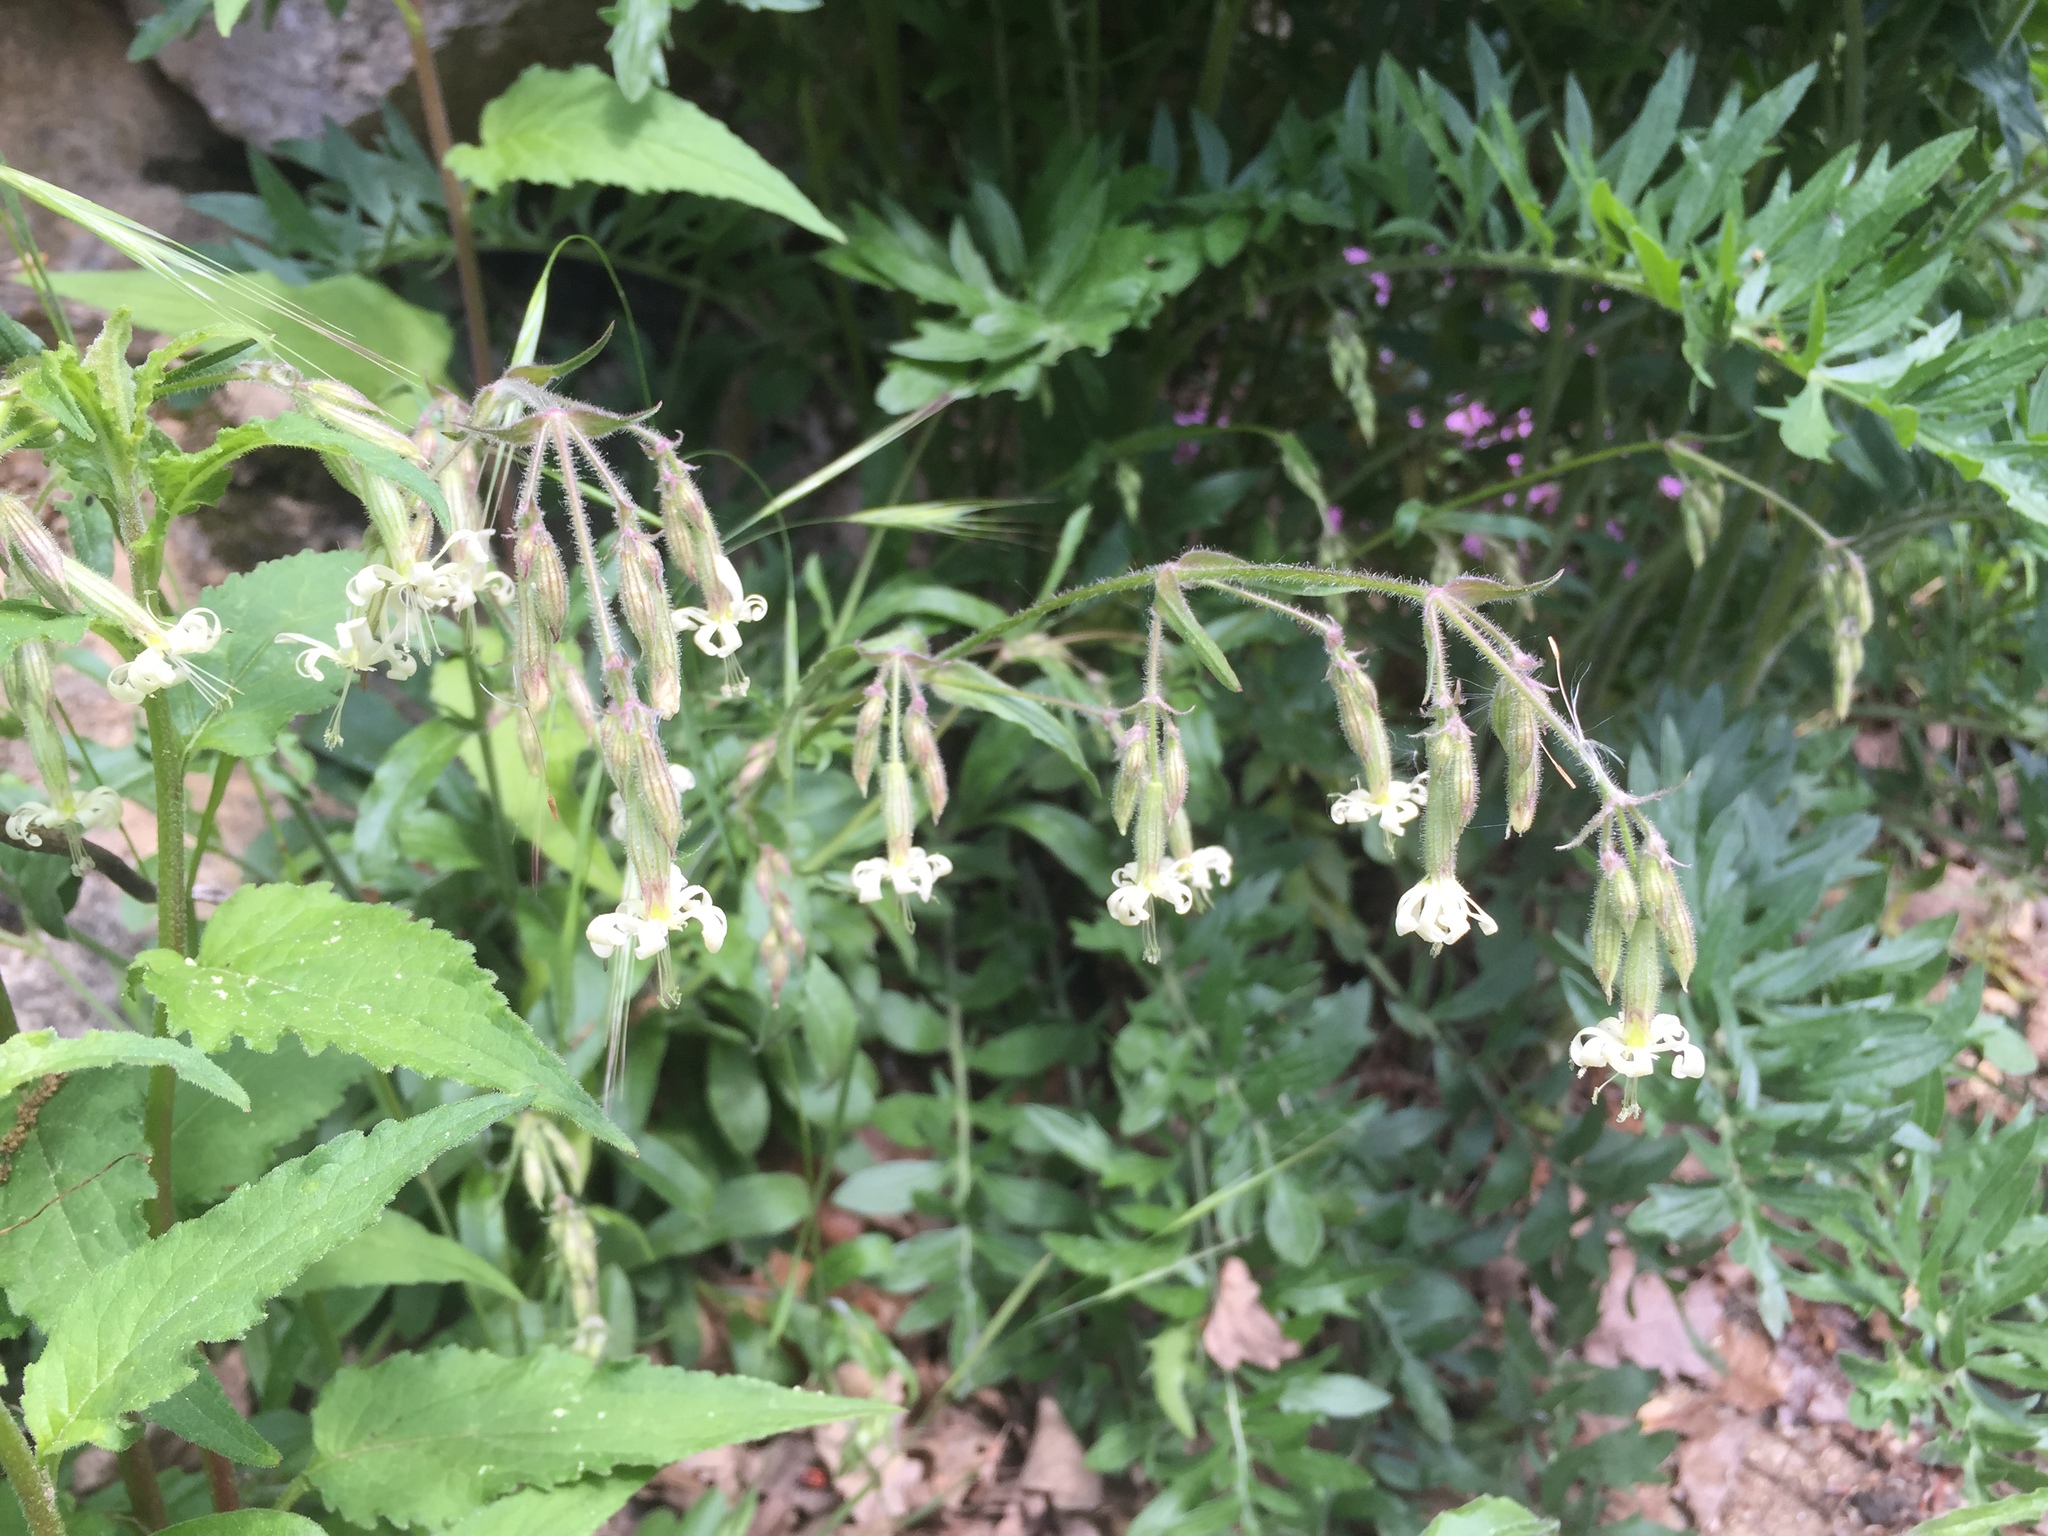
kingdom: Plantae
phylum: Tracheophyta
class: Magnoliopsida
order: Caryophyllales
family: Caryophyllaceae
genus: Silene
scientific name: Silene nutans
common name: Nottingham catchfly
